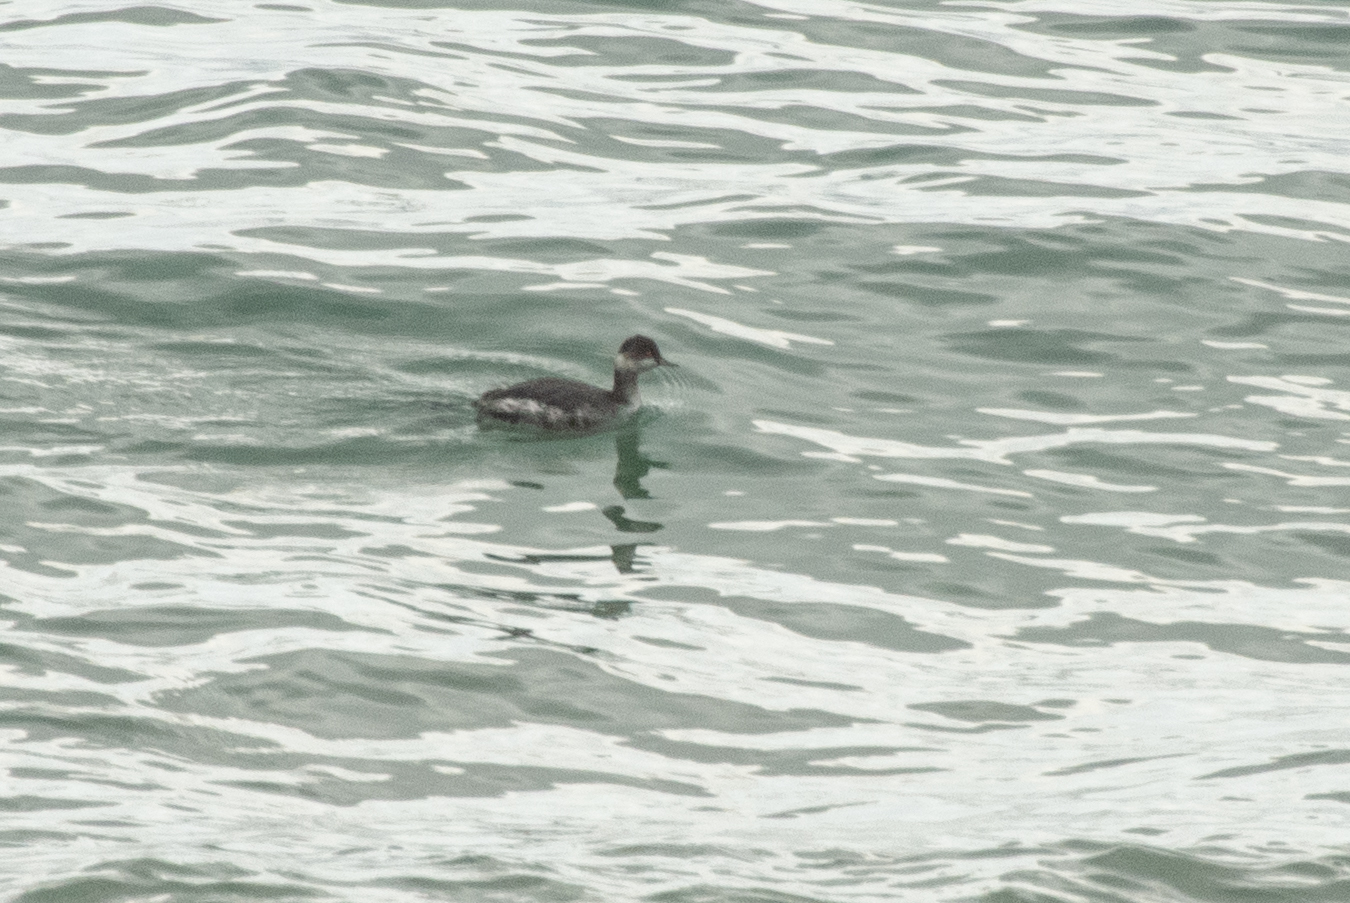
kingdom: Animalia
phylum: Chordata
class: Aves
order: Podicipediformes
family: Podicipedidae
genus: Podiceps
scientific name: Podiceps nigricollis
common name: Black-necked grebe
